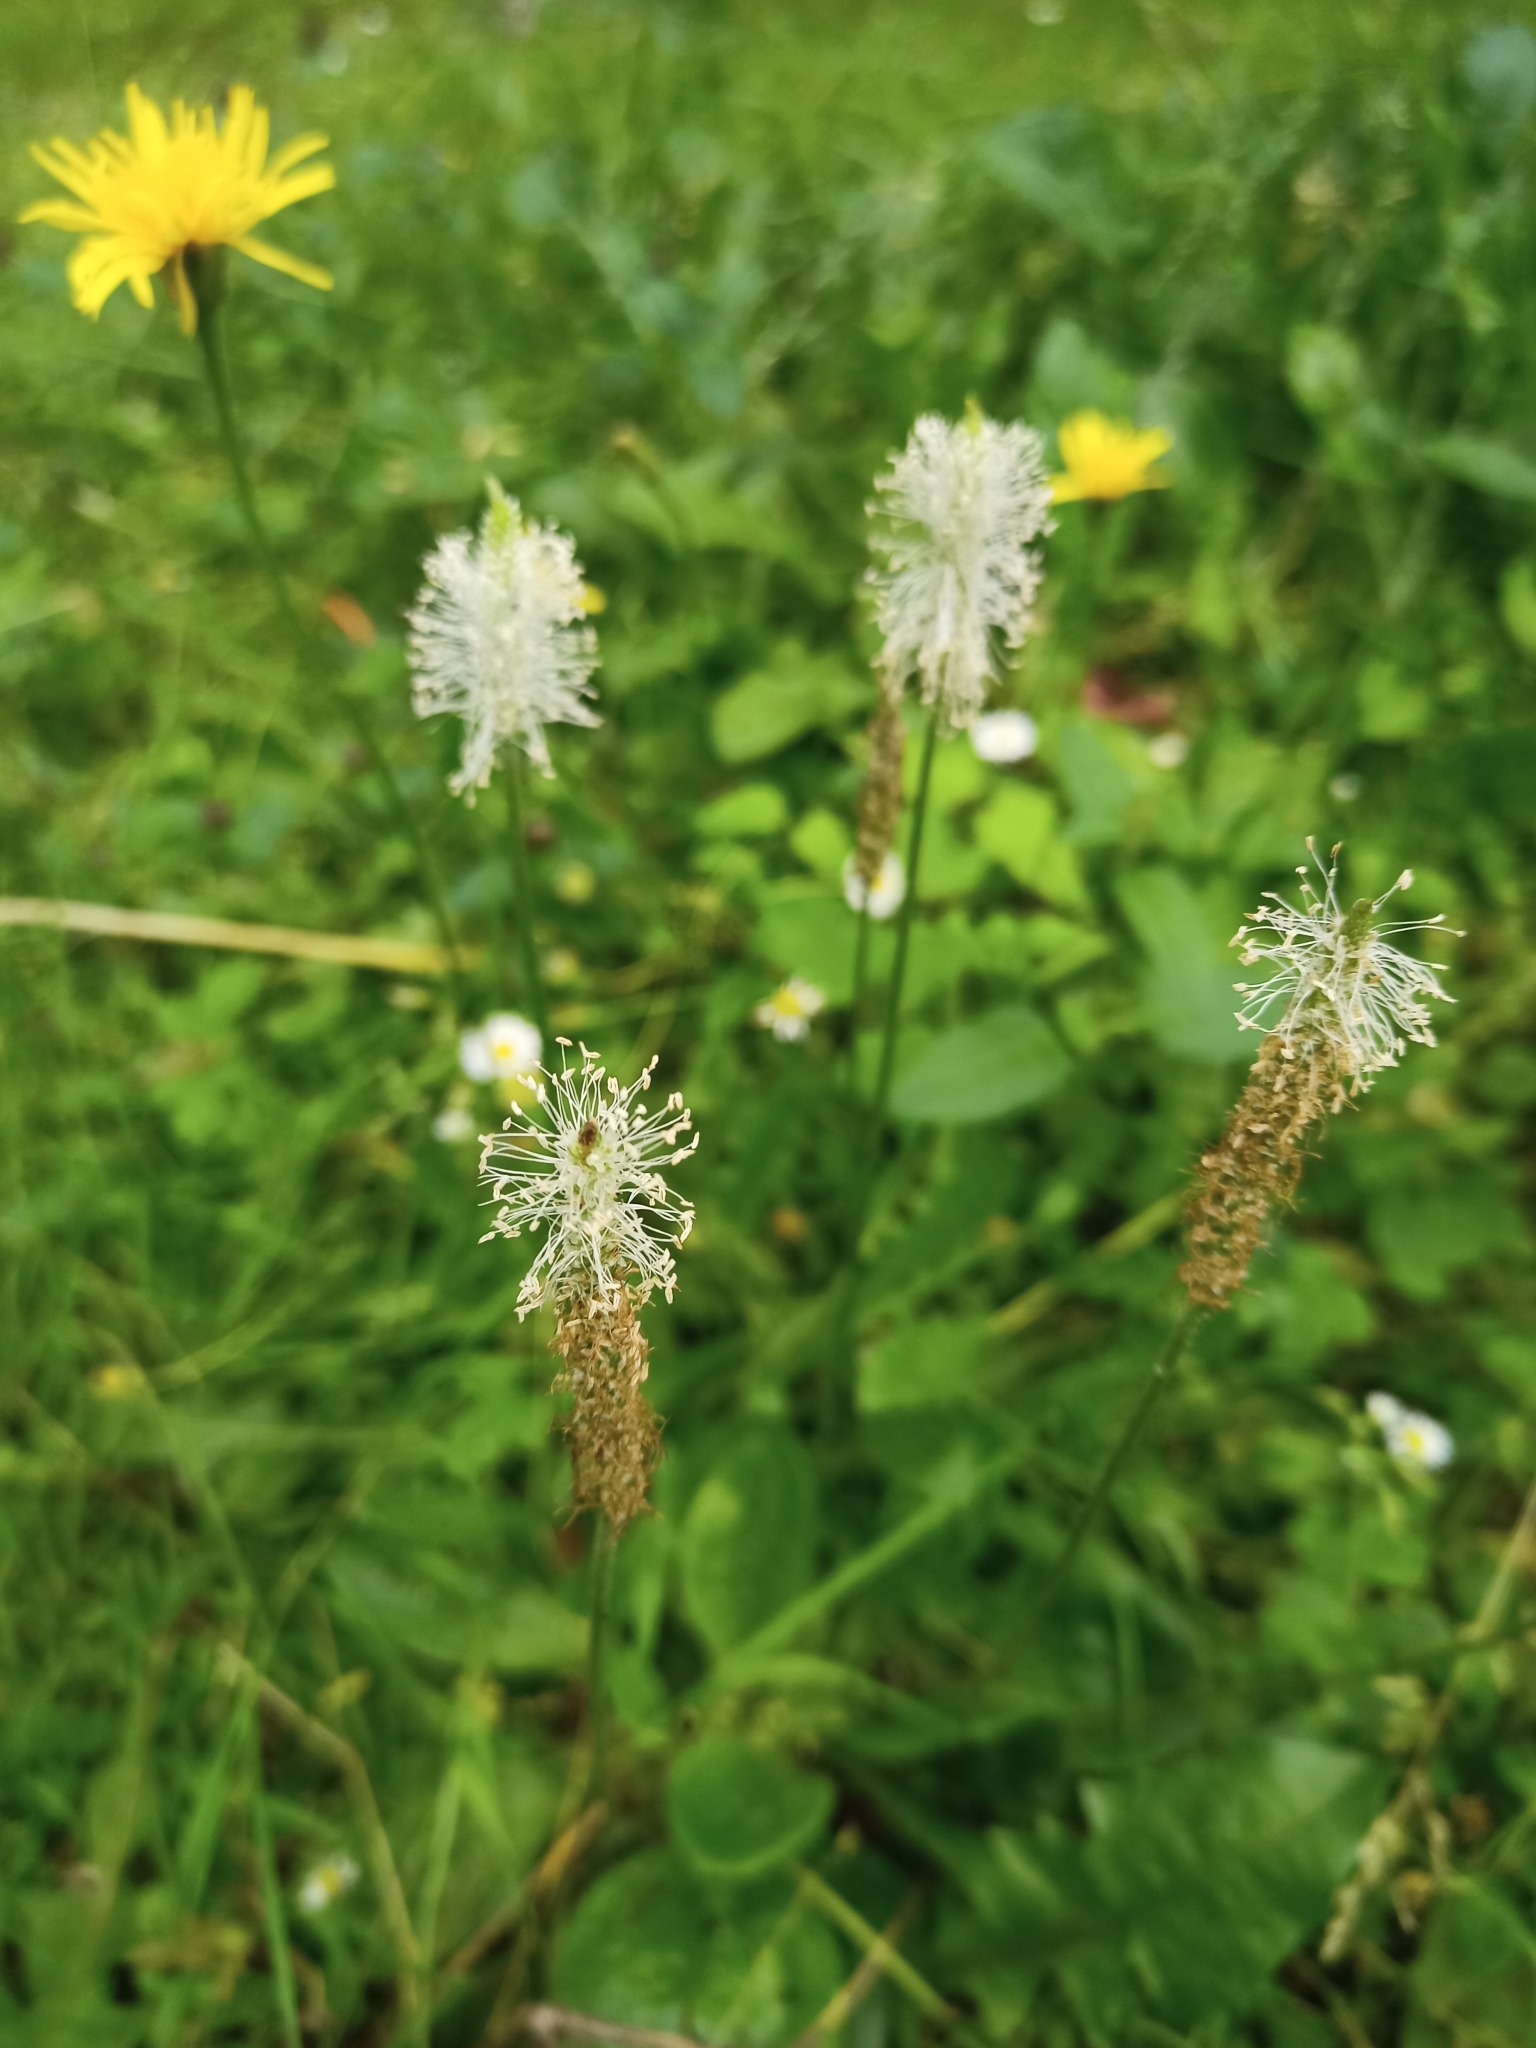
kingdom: Plantae
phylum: Tracheophyta
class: Magnoliopsida
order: Lamiales
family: Plantaginaceae
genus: Plantago
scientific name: Plantago media
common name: Hoary plantain
